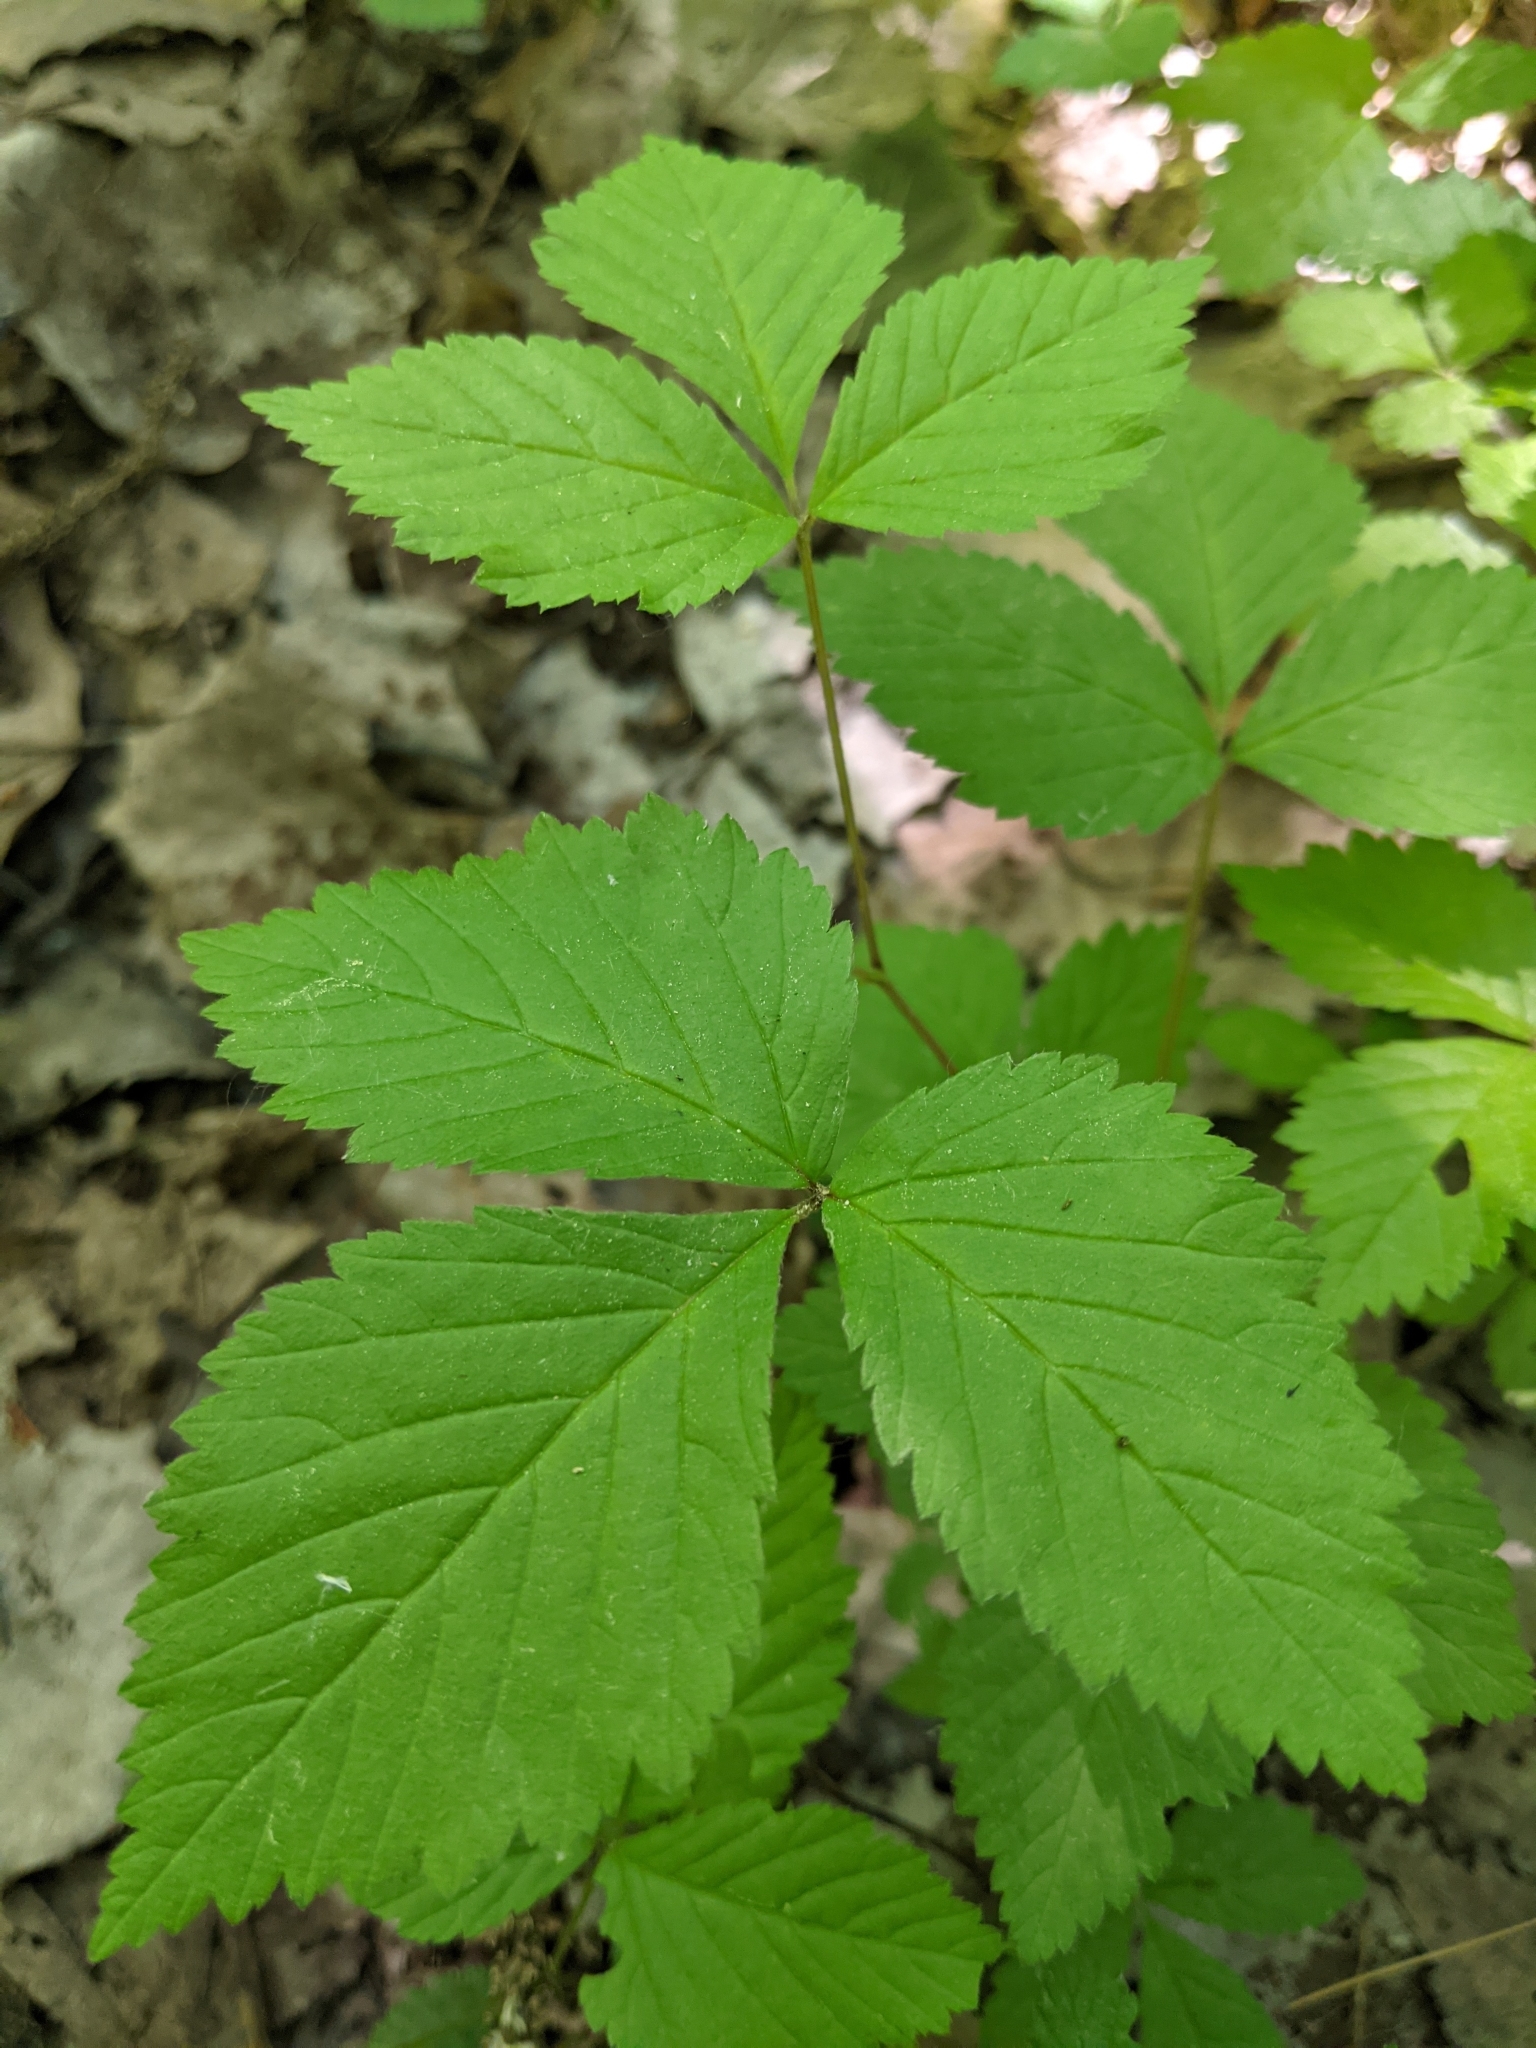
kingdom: Plantae
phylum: Tracheophyta
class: Magnoliopsida
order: Rosales
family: Rosaceae
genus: Rubus
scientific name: Rubus pubescens
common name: Dwarf raspberry
